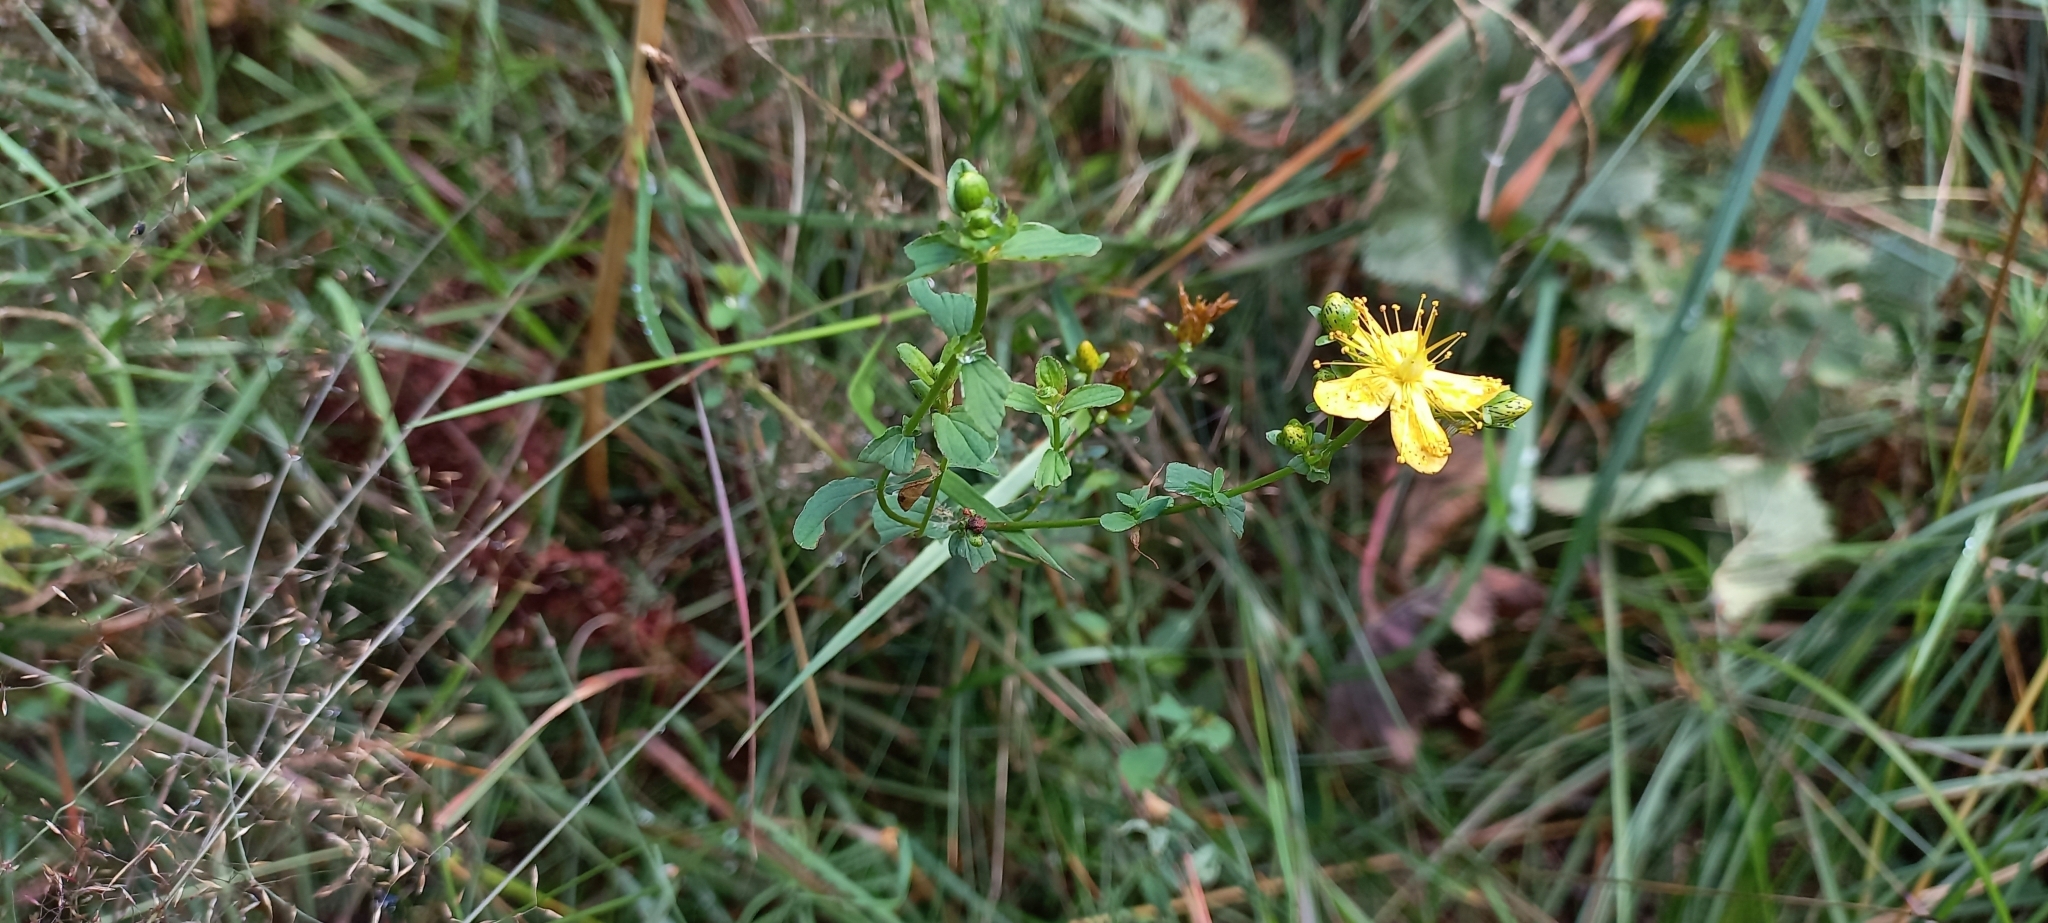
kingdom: Plantae
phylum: Tracheophyta
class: Magnoliopsida
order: Malpighiales
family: Hypericaceae
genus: Hypericum
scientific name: Hypericum maculatum
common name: Imperforate st. john's-wort
